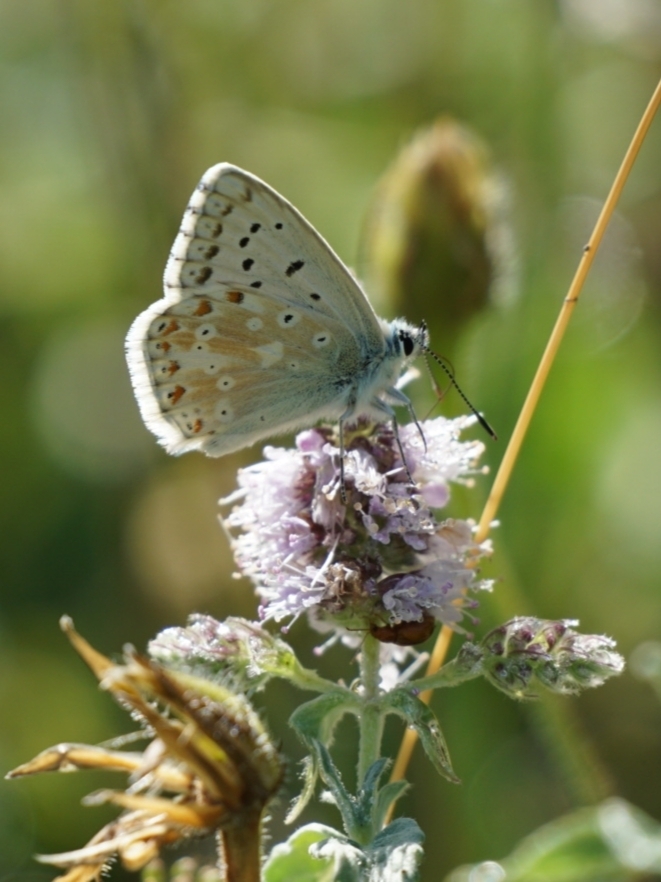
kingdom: Animalia
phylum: Arthropoda
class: Insecta
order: Lepidoptera
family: Lycaenidae
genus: Lysandra
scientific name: Lysandra coridon
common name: Chalkhill blue
